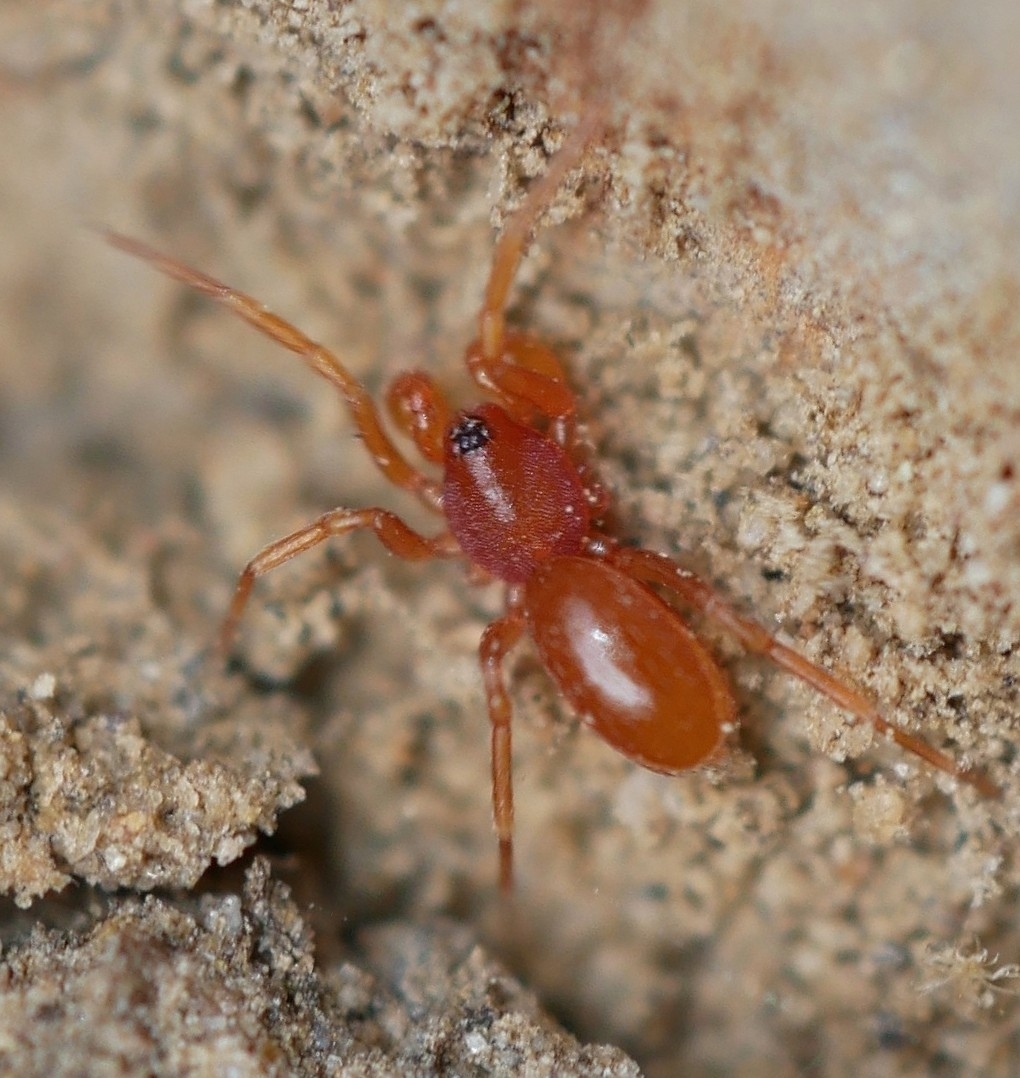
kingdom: Animalia
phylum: Arthropoda
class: Arachnida
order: Araneae
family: Oonopidae
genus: Escaphiella
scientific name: Escaphiella hespera
